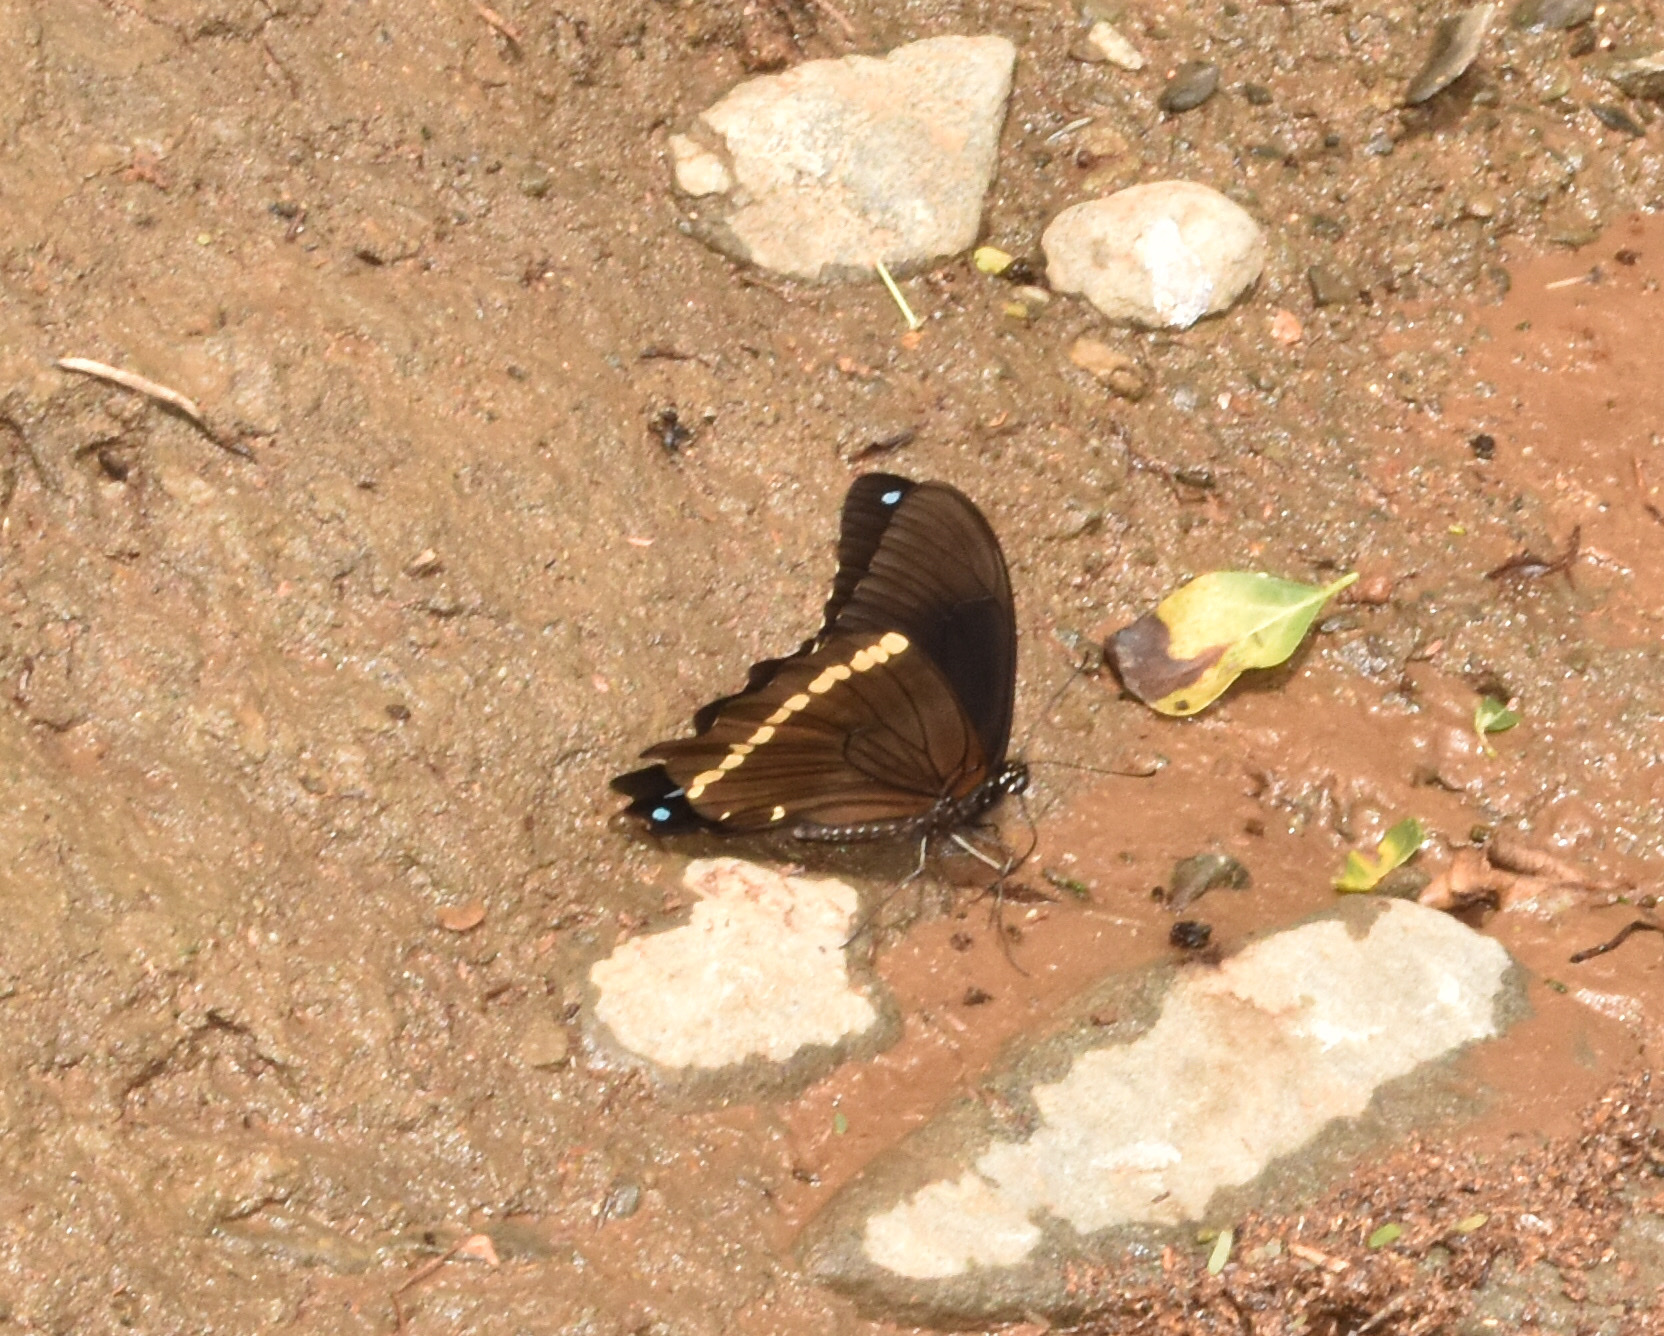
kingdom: Animalia
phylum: Arthropoda
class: Insecta
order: Lepidoptera
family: Papilionidae
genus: Papilio
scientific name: Papilio nireus
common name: Greenbanded swallowtail
